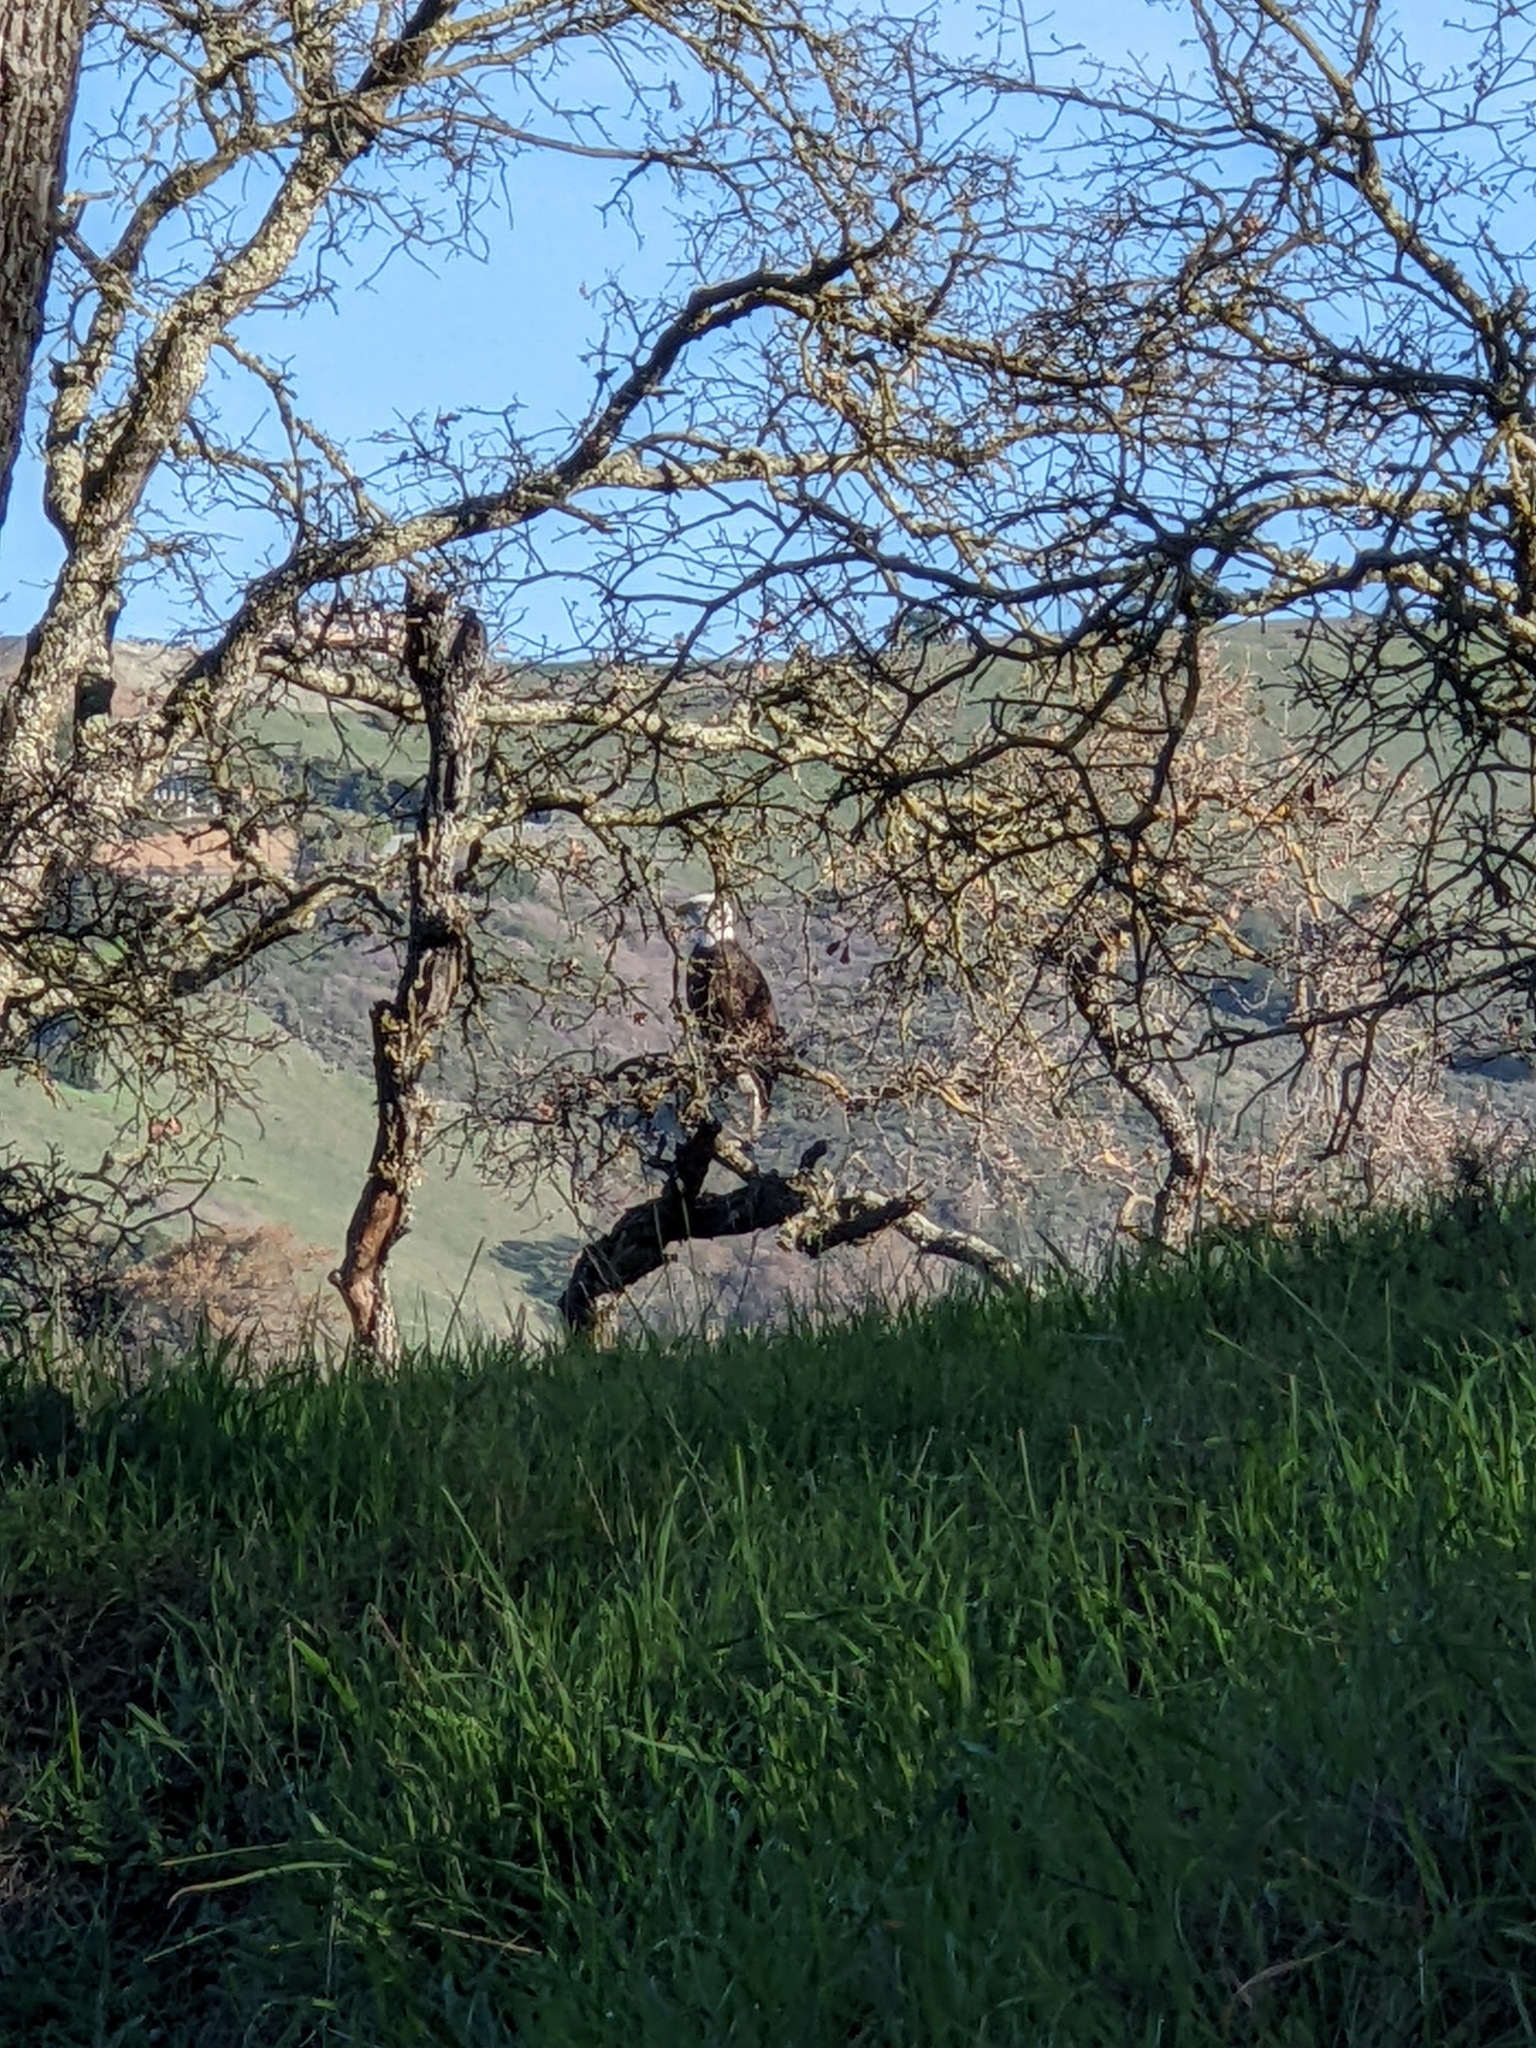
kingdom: Animalia
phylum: Chordata
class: Aves
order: Accipitriformes
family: Accipitridae
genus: Haliaeetus
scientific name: Haliaeetus leucocephalus
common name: Bald eagle
